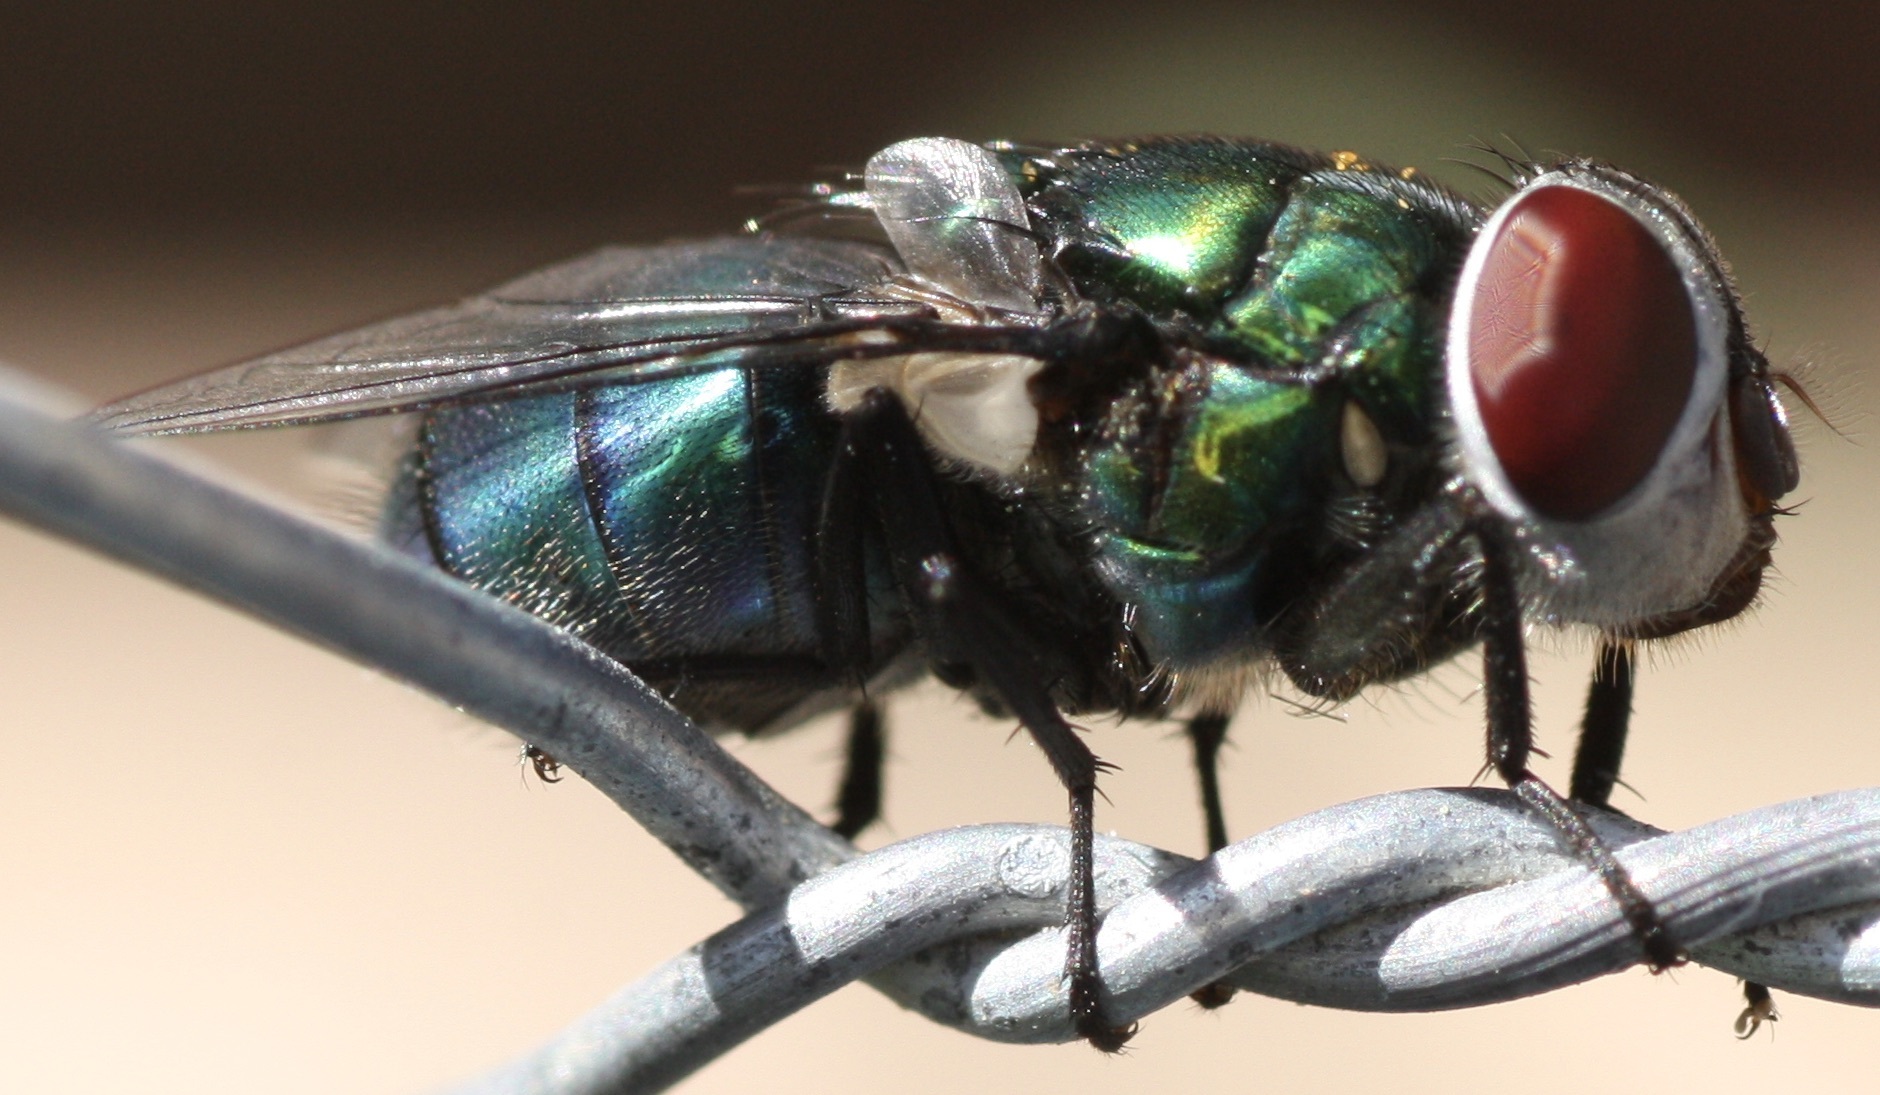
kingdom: Animalia
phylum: Arthropoda
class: Insecta
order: Diptera
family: Calliphoridae
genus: Chrysomya
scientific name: Chrysomya rufifacies
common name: Blow fly
